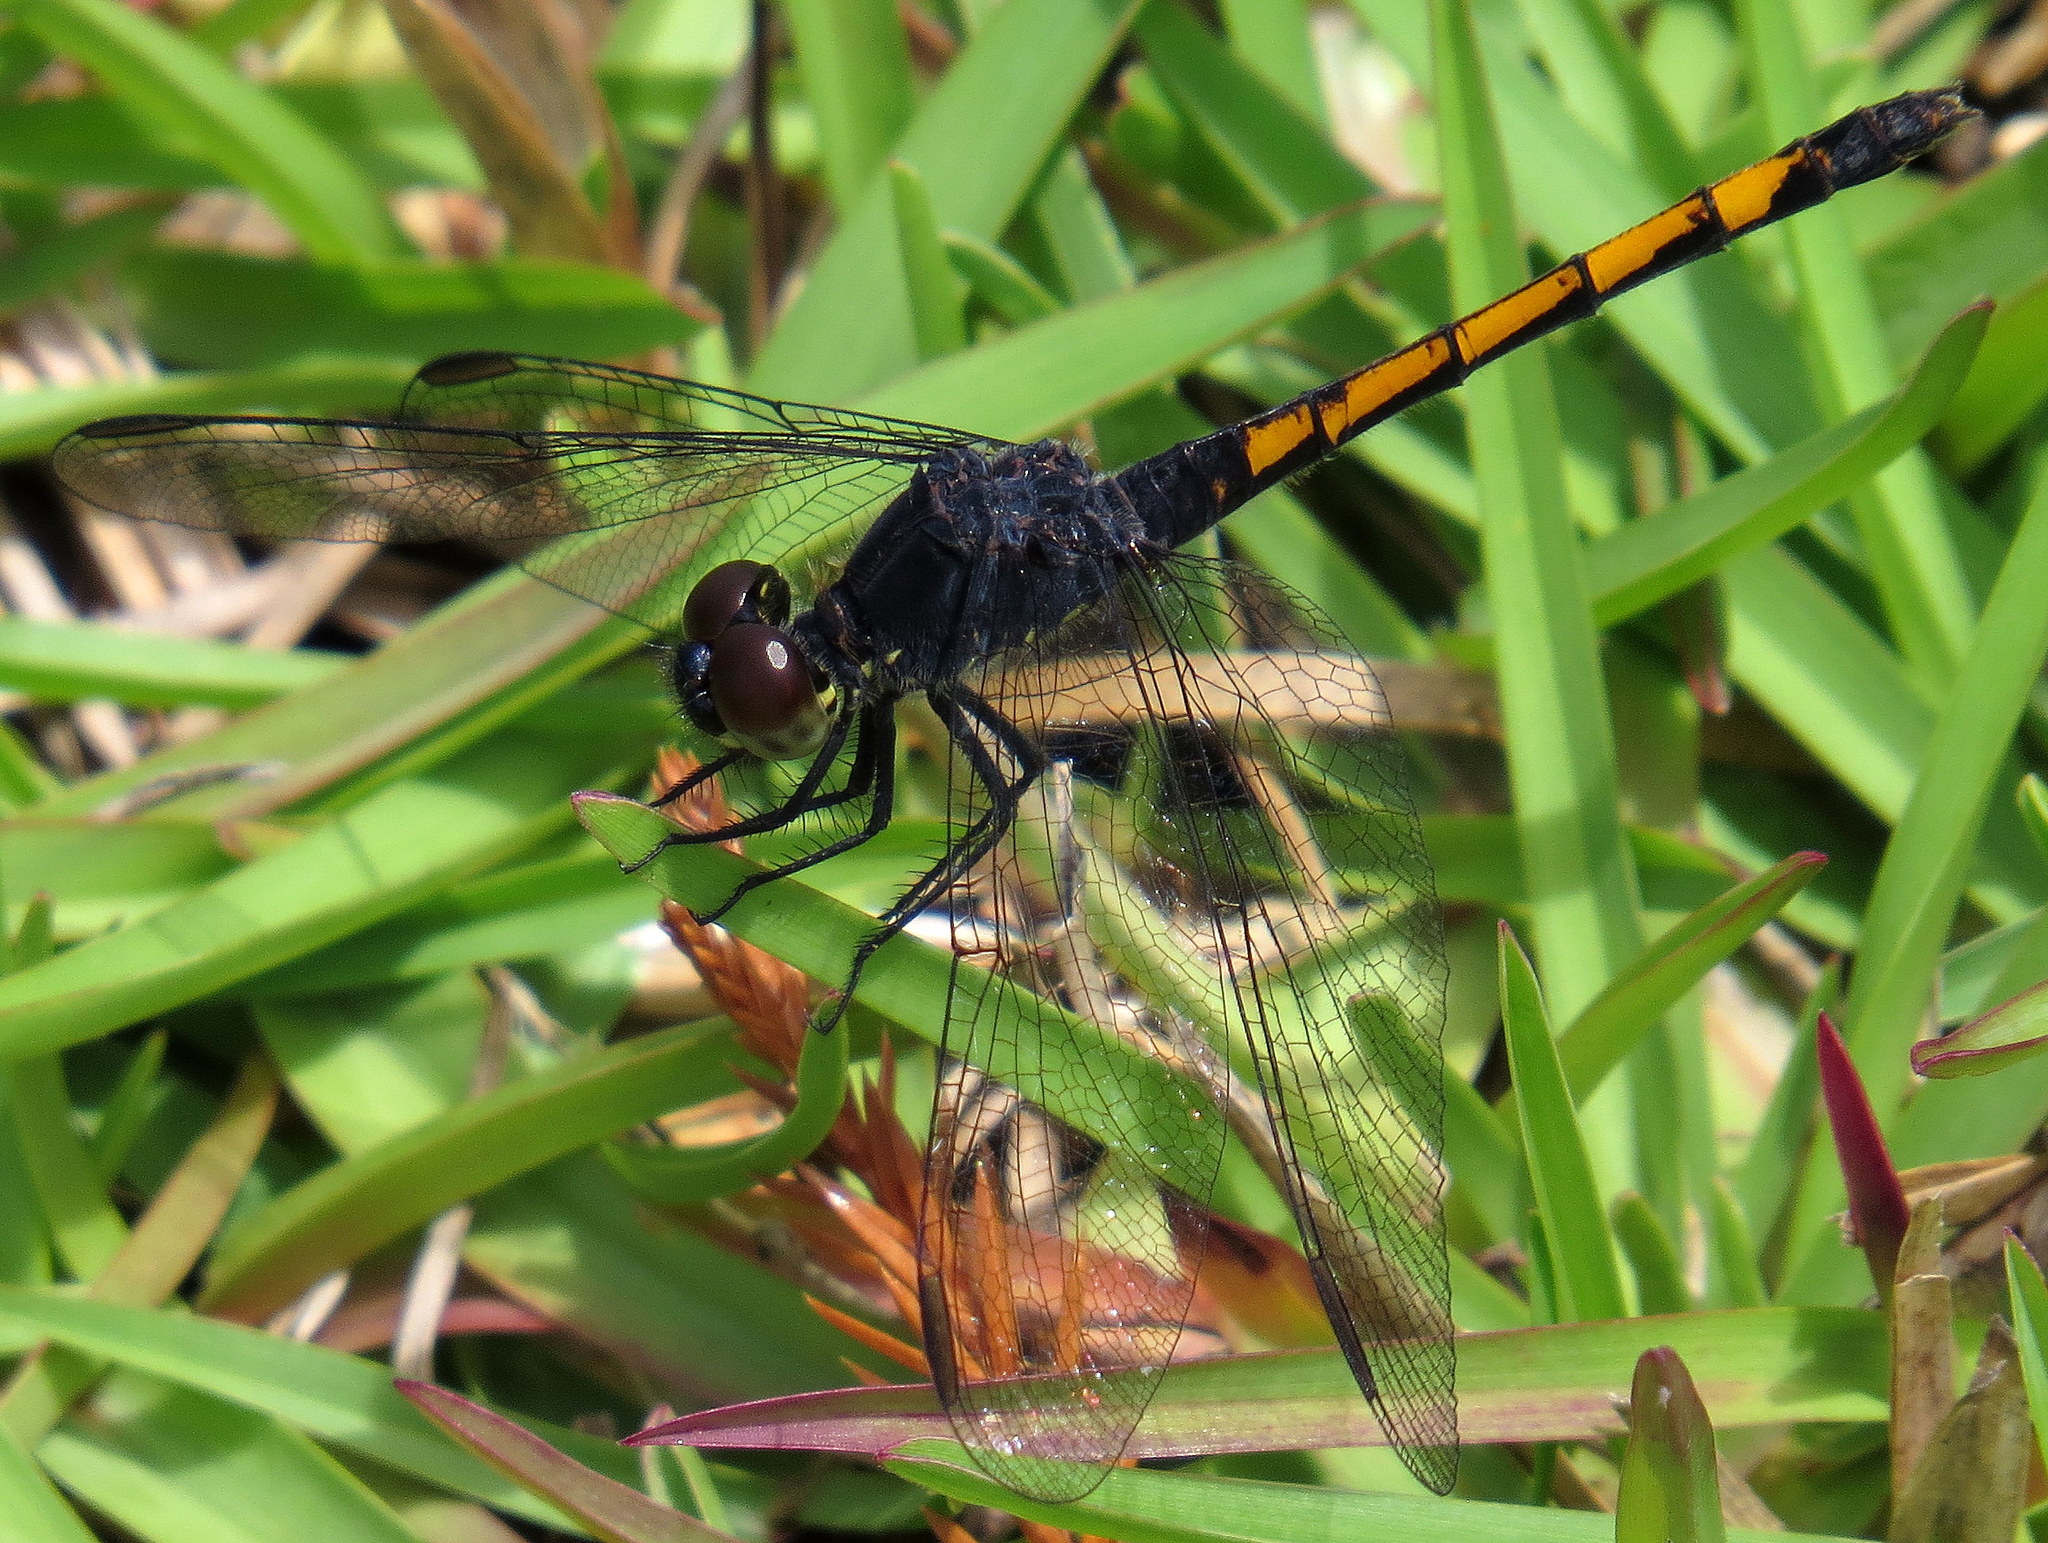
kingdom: Animalia
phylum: Arthropoda
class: Insecta
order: Odonata
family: Libellulidae
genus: Erythrodiplax
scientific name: Erythrodiplax berenice
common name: Seaside dragonlet
